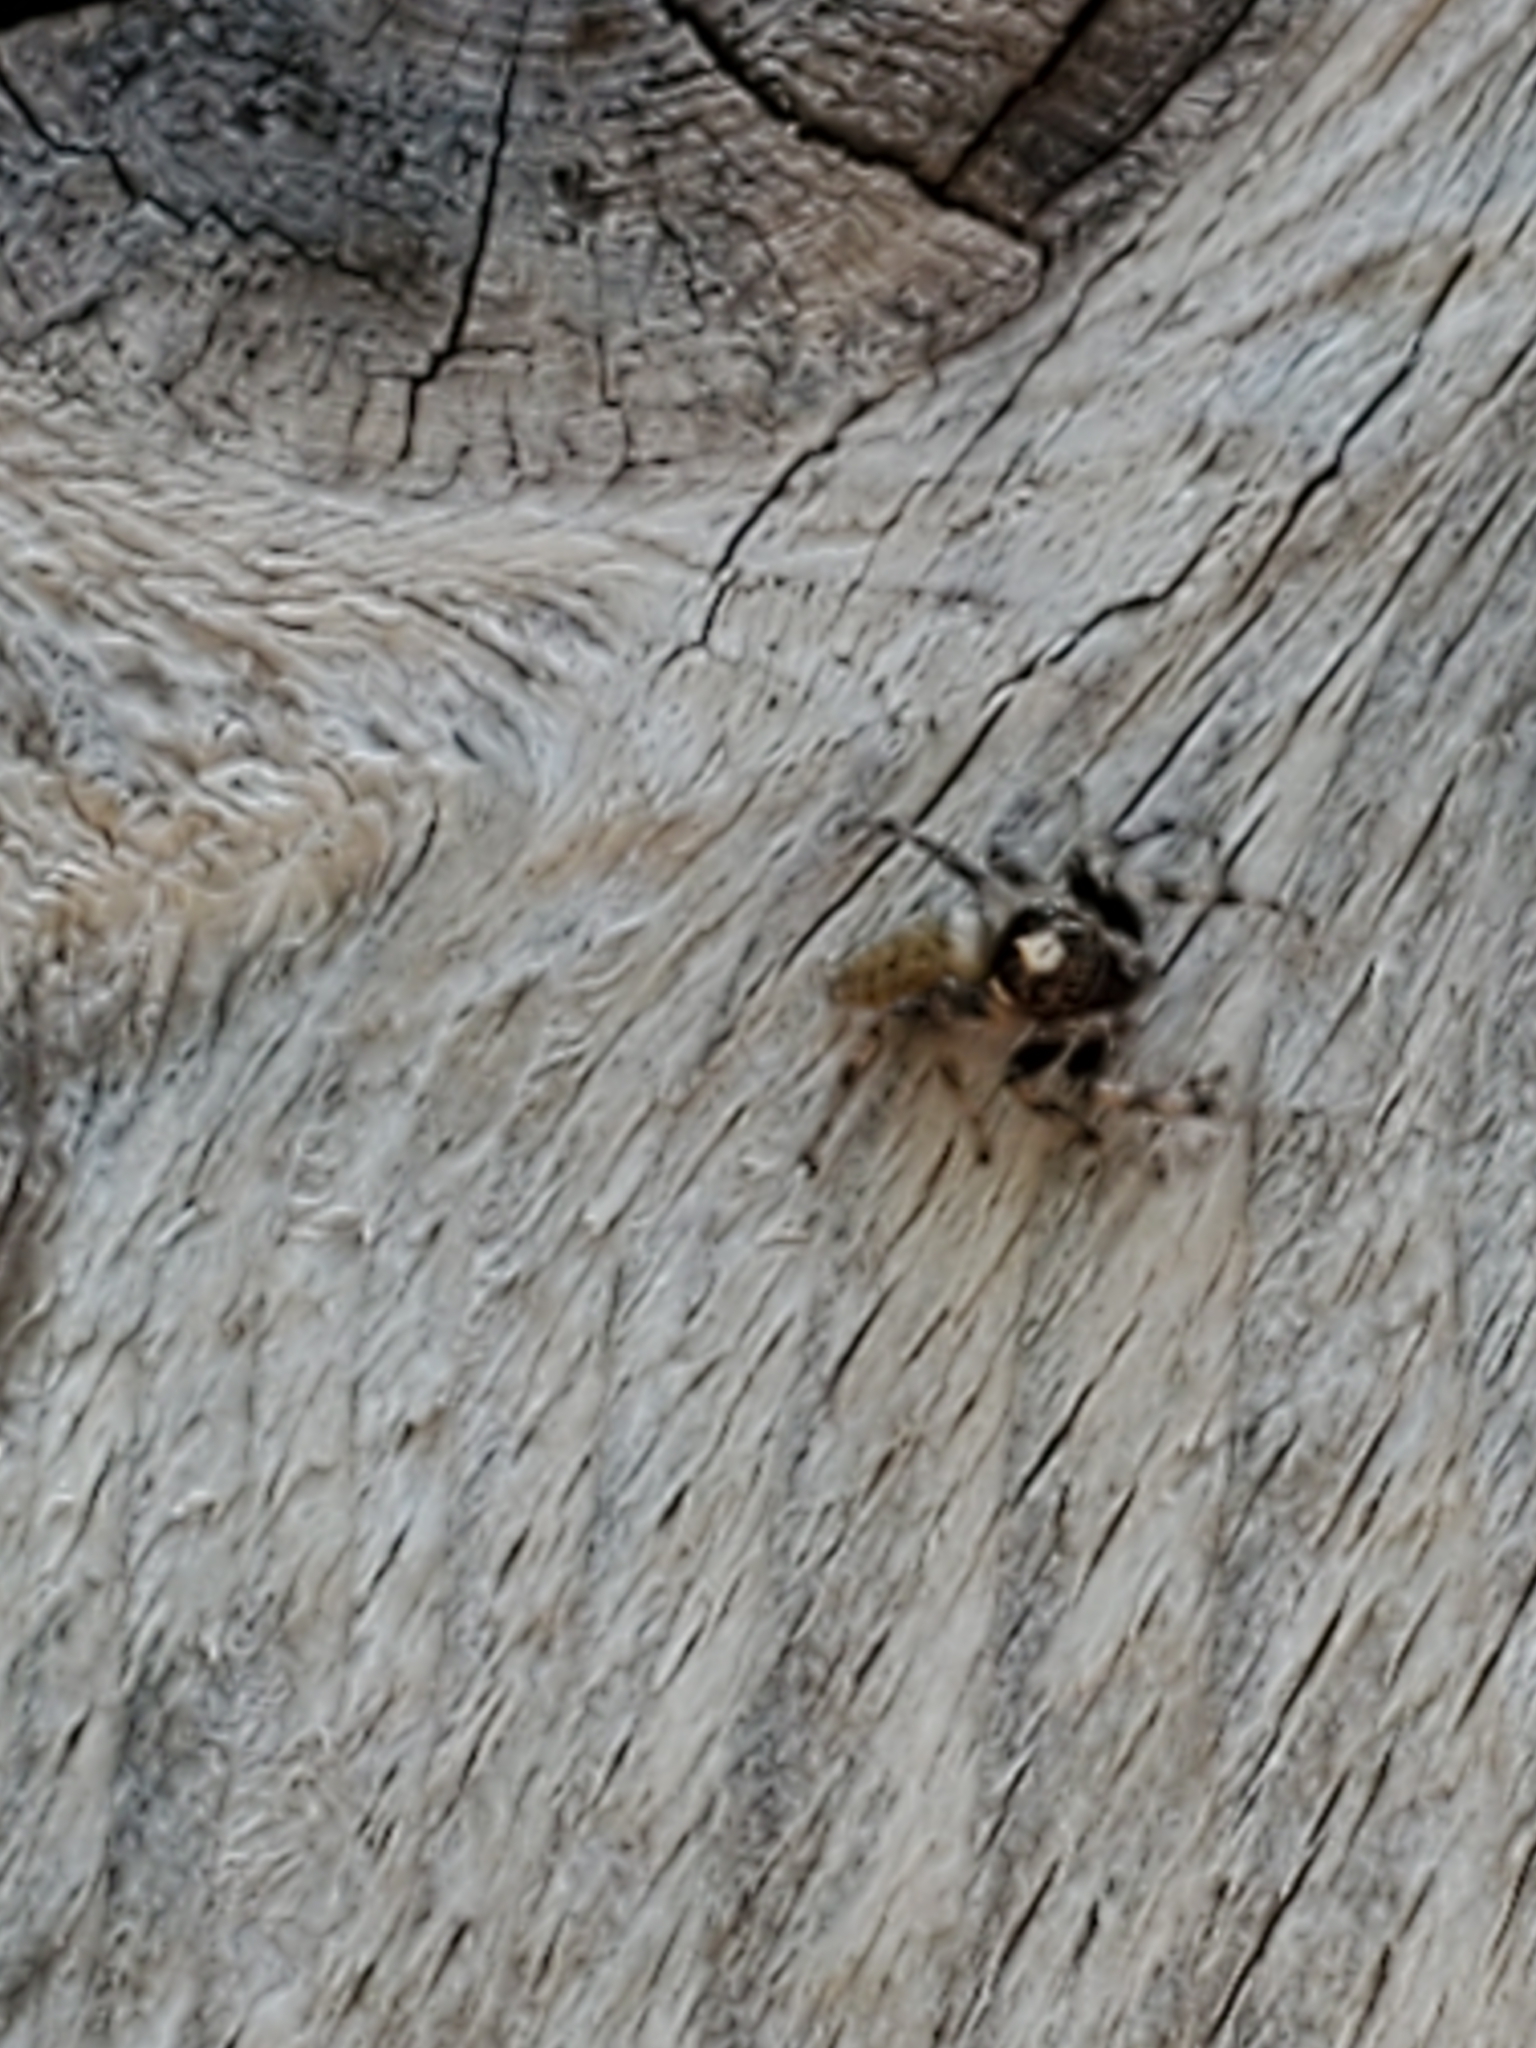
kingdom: Animalia
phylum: Arthropoda
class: Arachnida
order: Araneae
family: Salticidae
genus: Colonus
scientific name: Colonus hesperus
